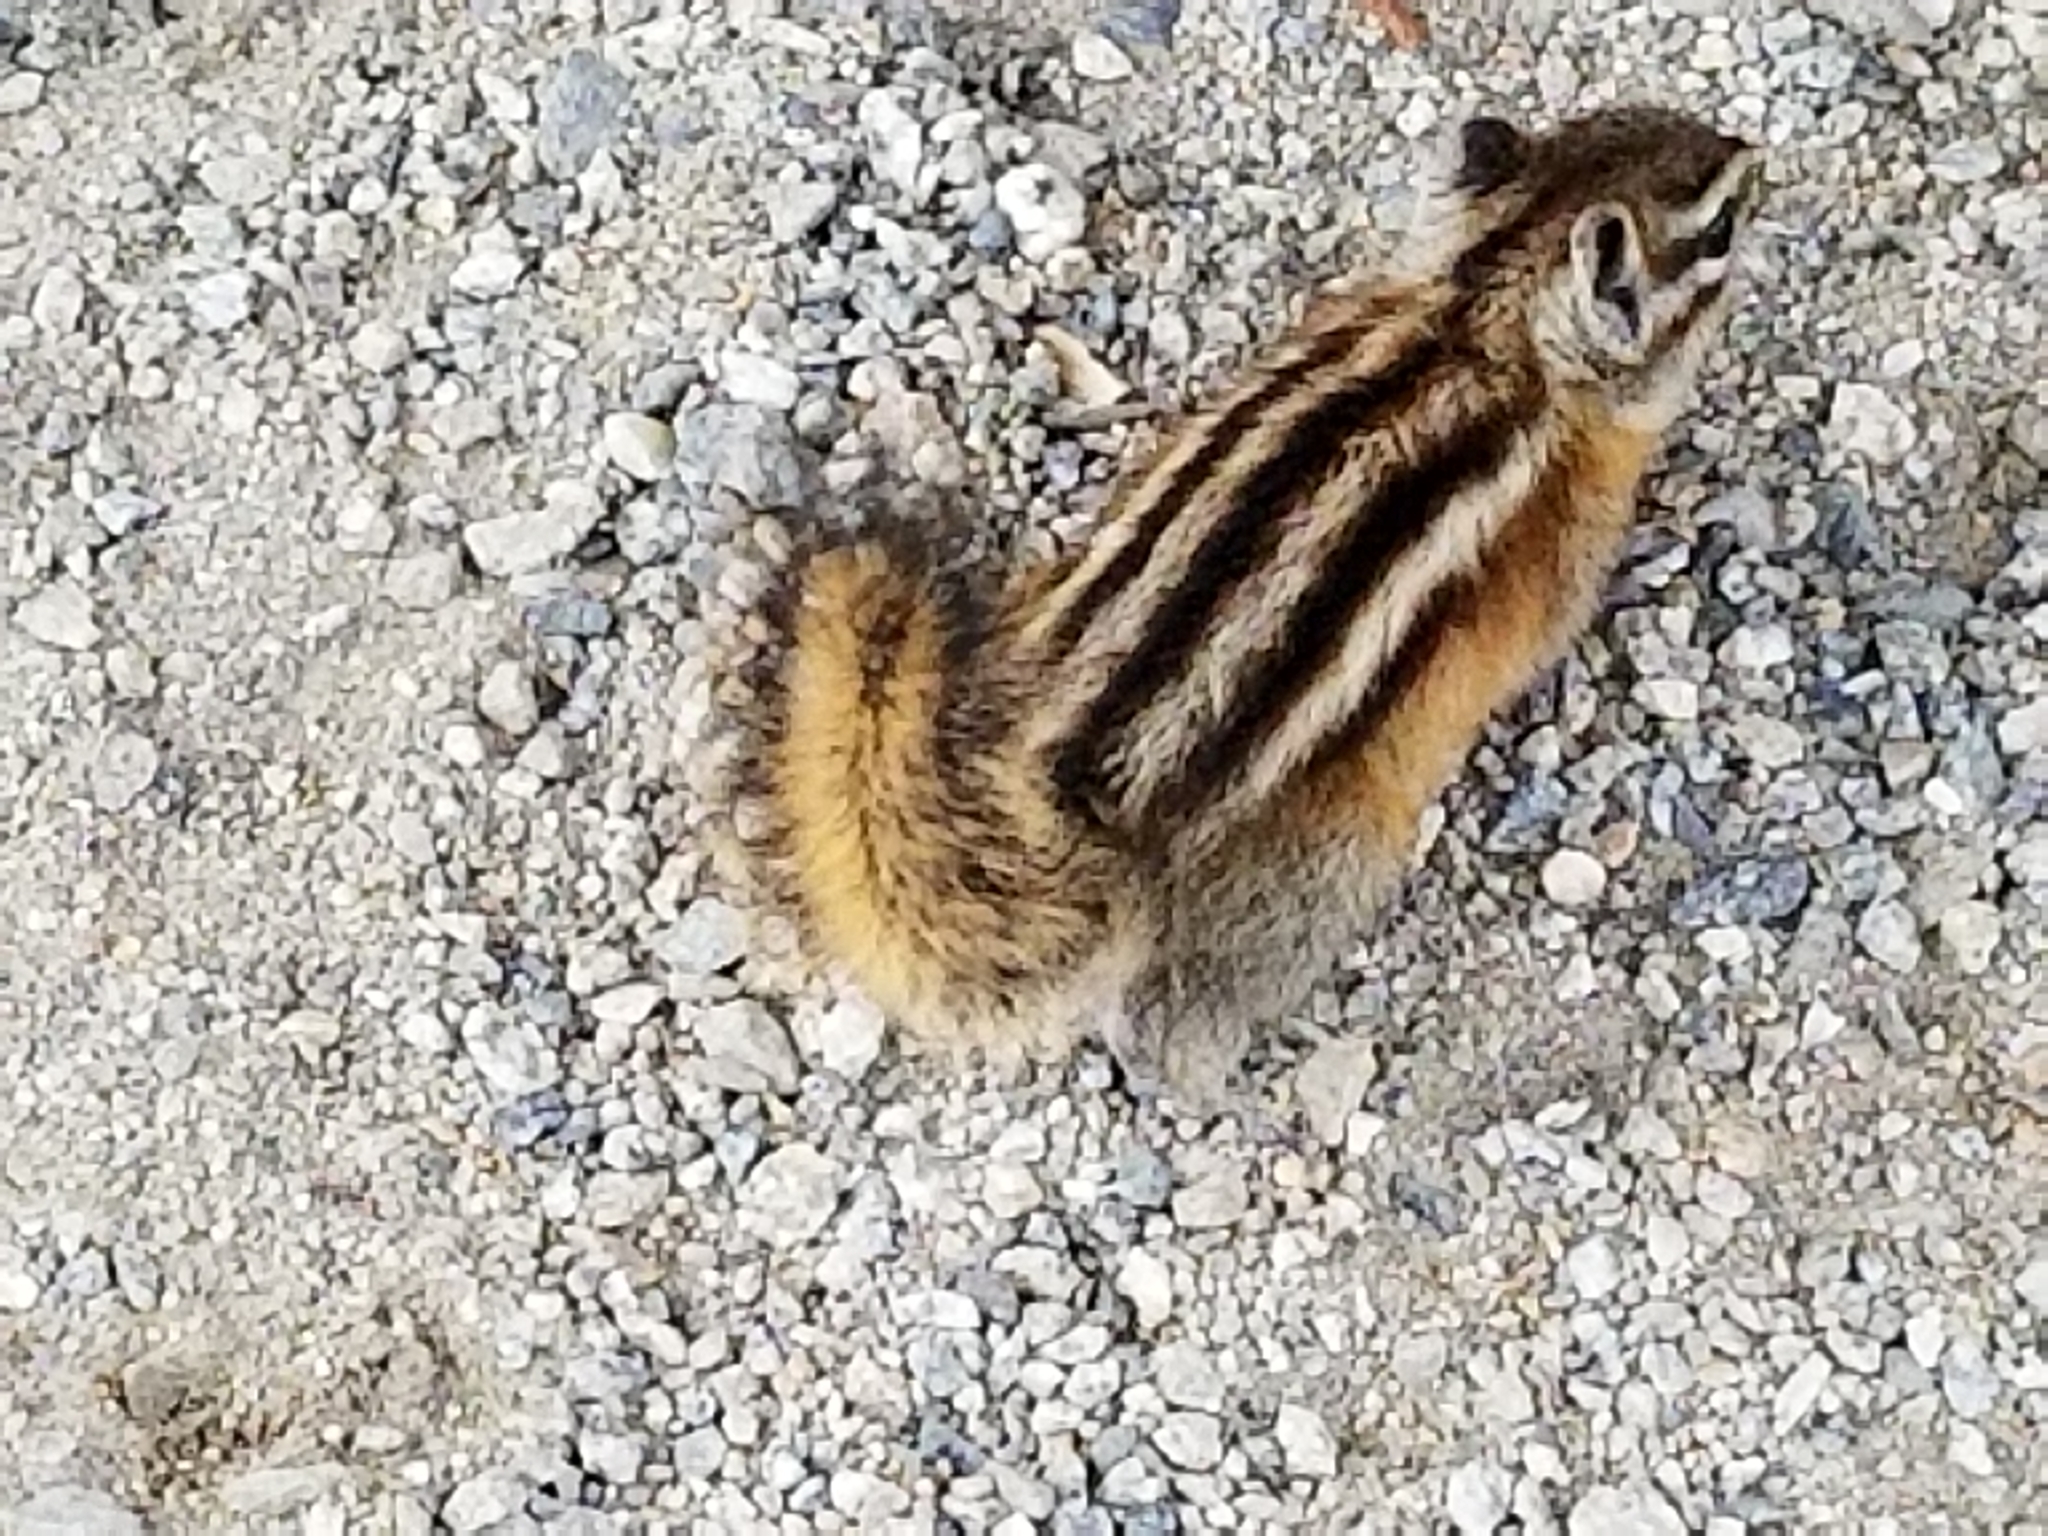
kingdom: Animalia
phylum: Chordata
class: Mammalia
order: Rodentia
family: Sciuridae
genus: Tamias
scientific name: Tamias minimus
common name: Least chipmunk
